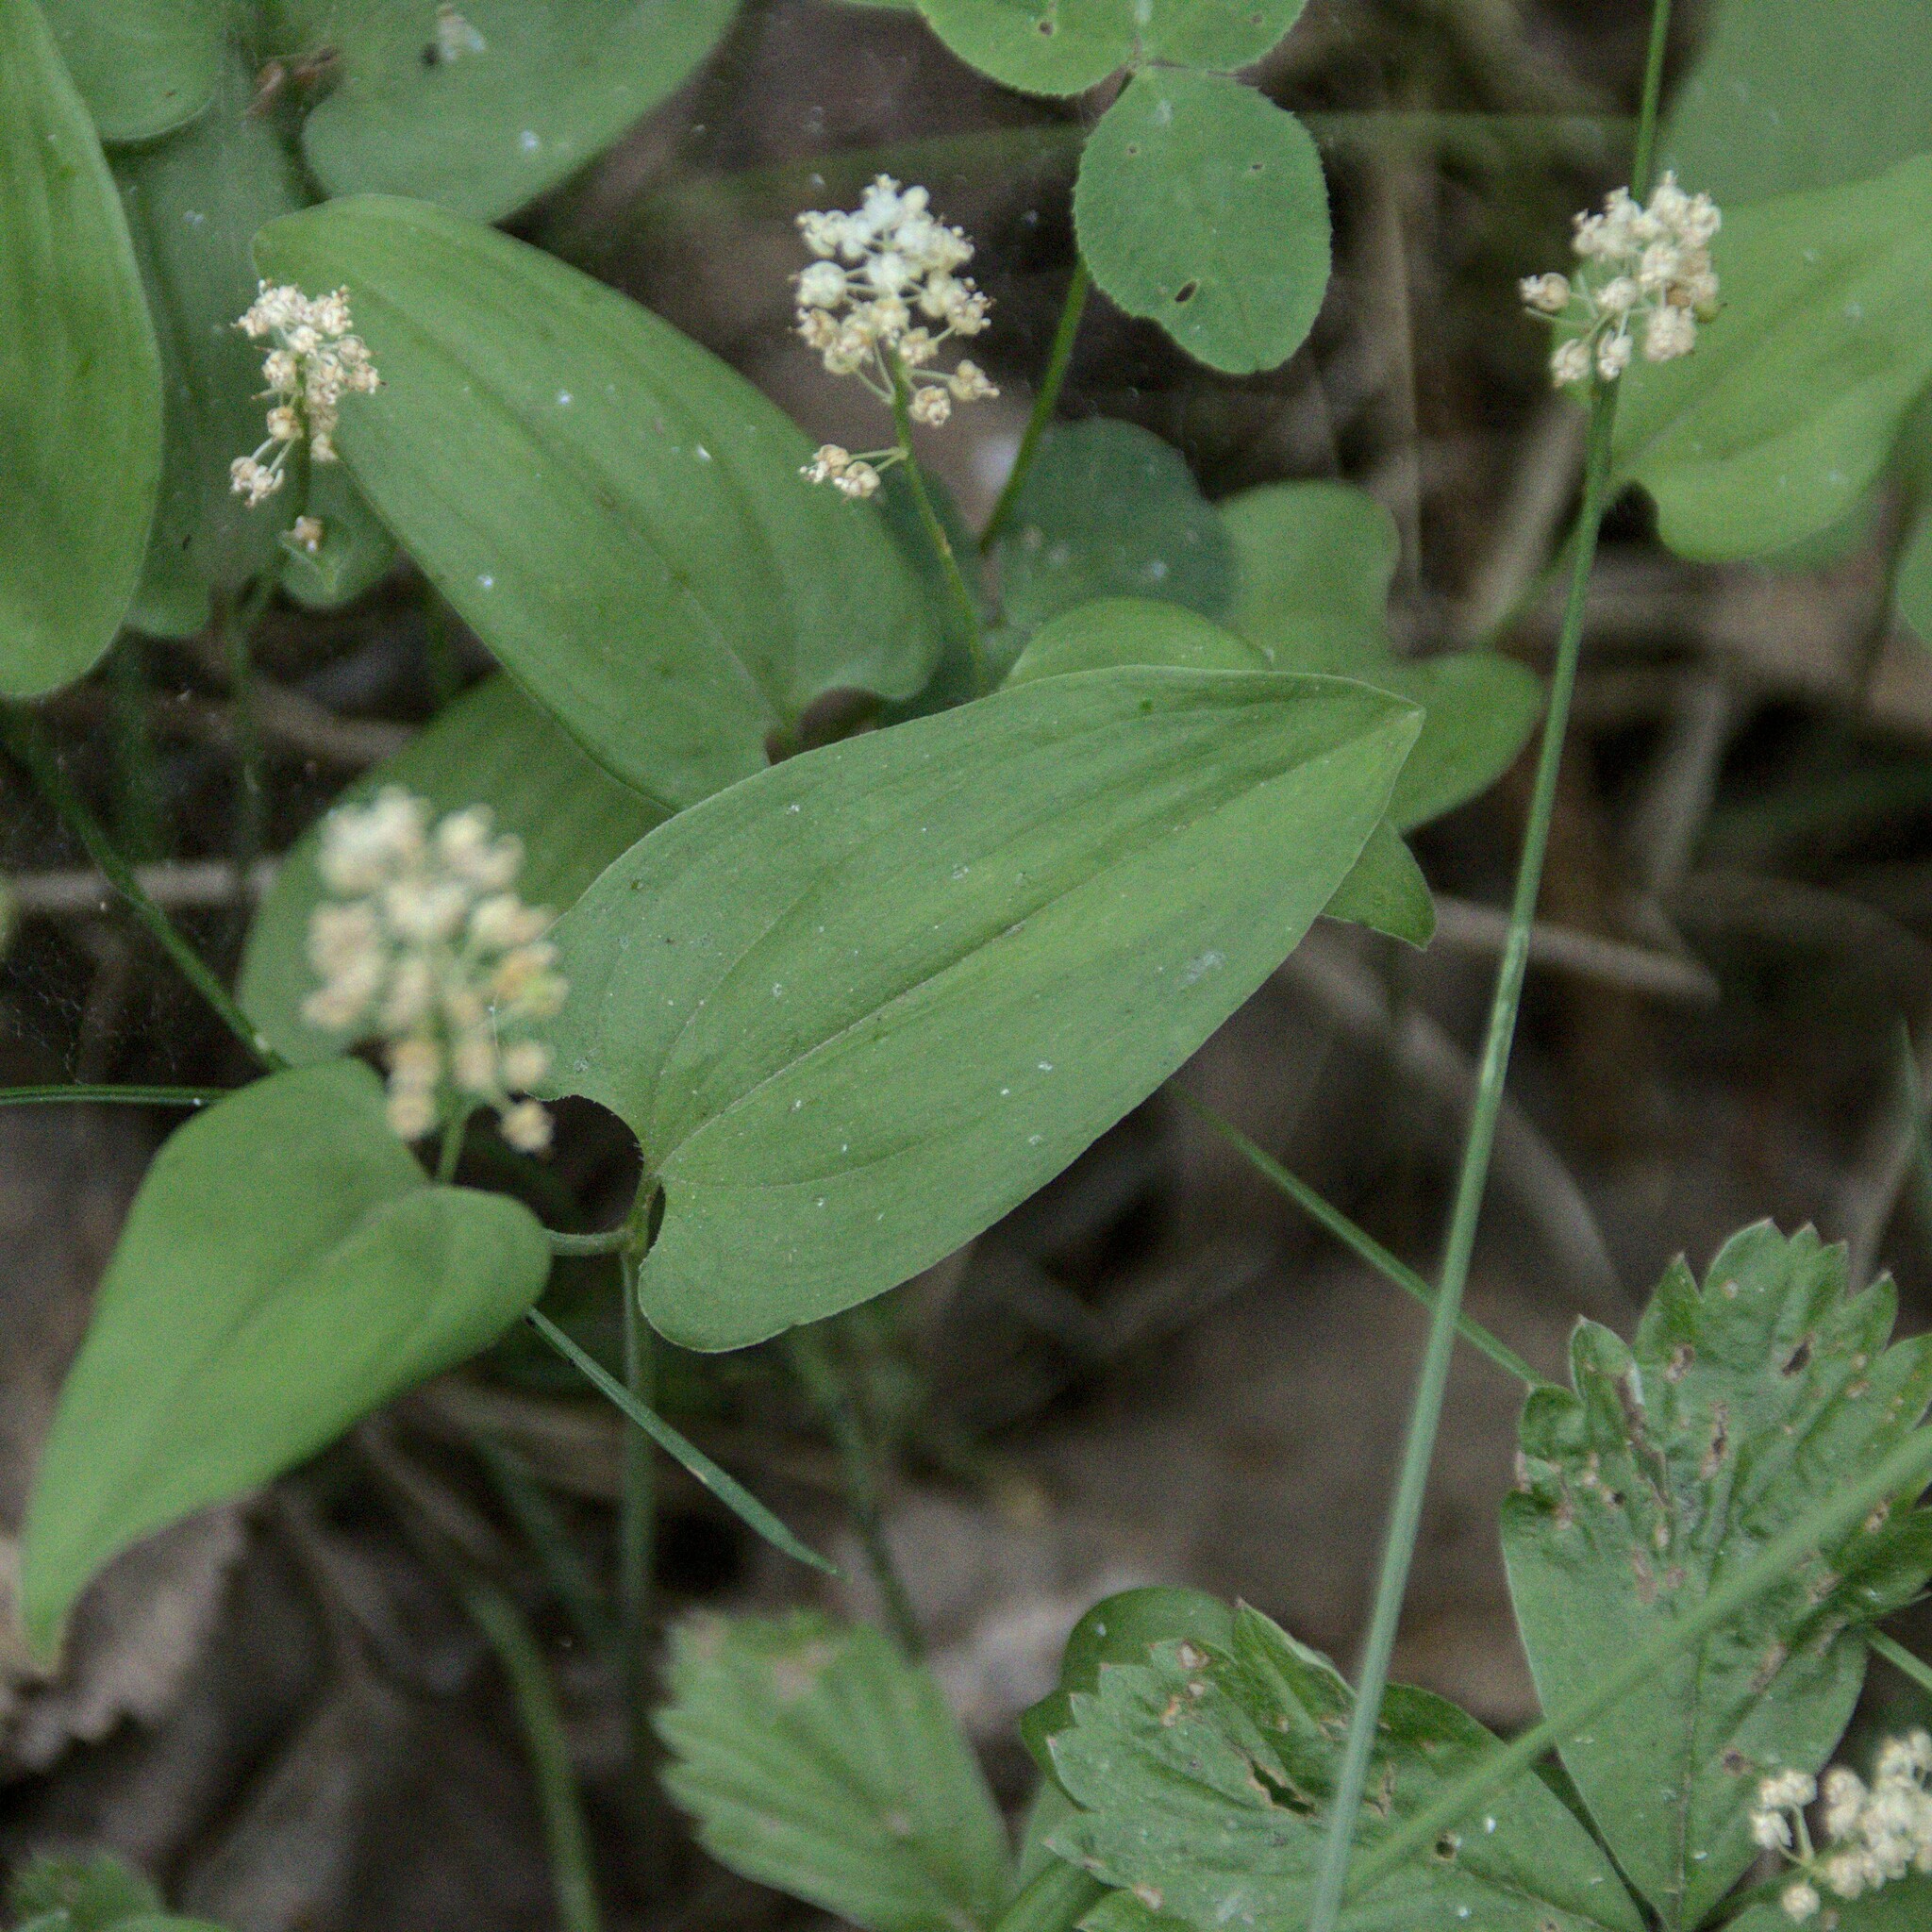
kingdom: Plantae
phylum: Tracheophyta
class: Liliopsida
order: Asparagales
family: Asparagaceae
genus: Maianthemum
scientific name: Maianthemum bifolium
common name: May lily
